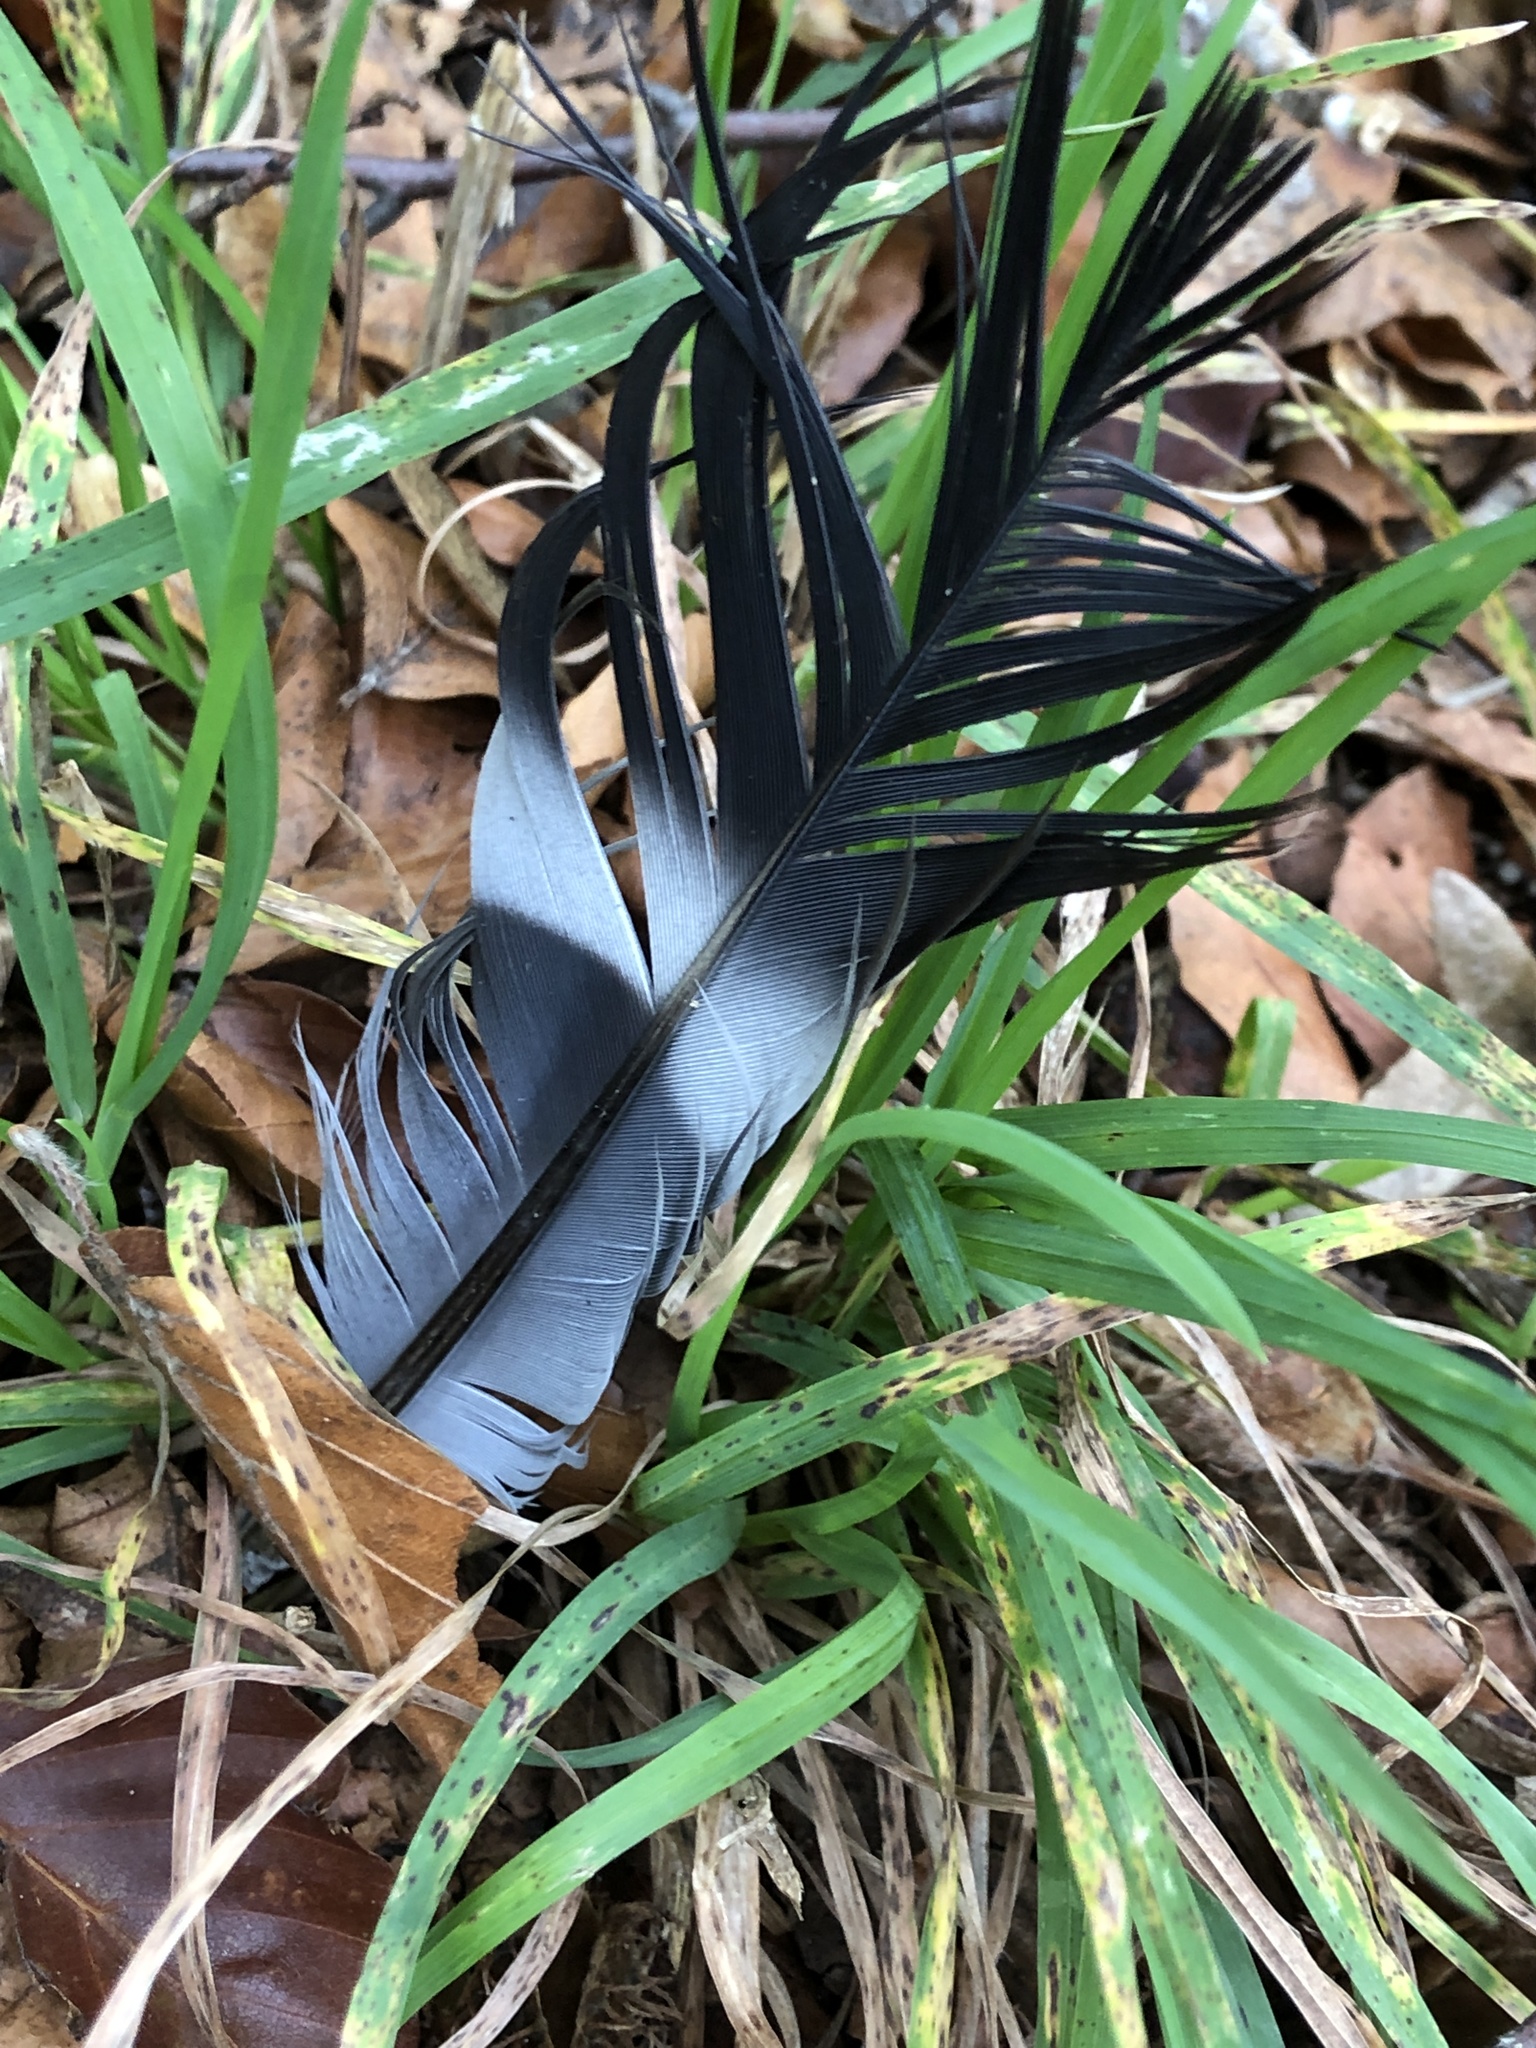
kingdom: Animalia
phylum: Chordata
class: Aves
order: Columbiformes
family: Columbidae
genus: Columba
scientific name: Columba palumbus
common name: Common wood pigeon
